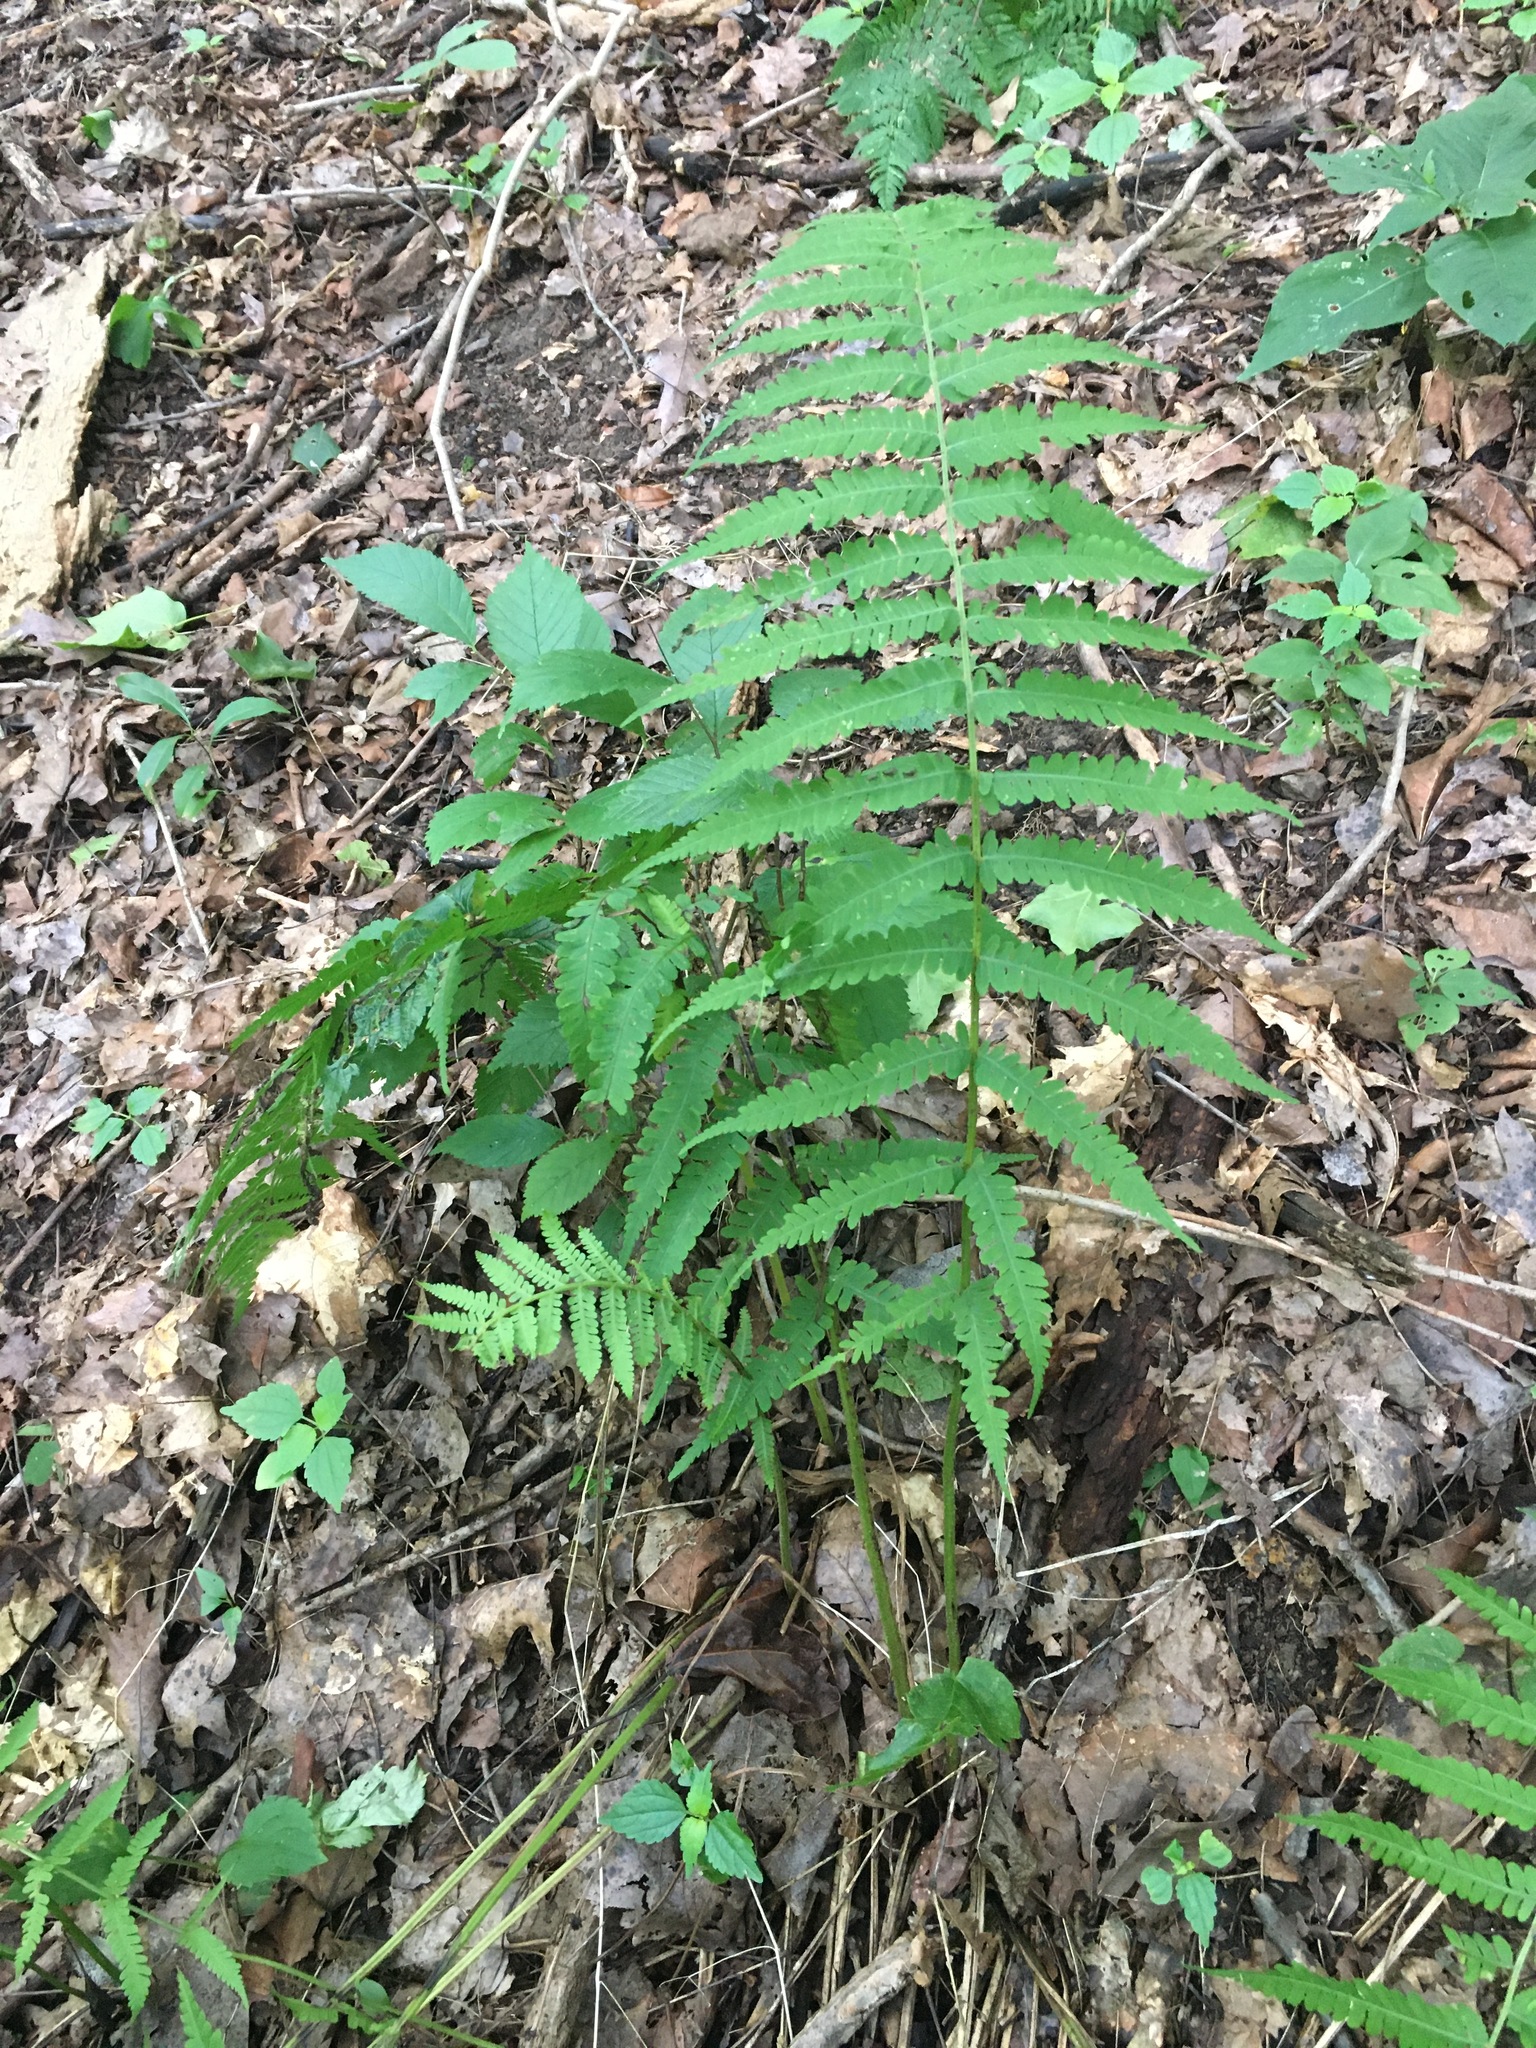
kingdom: Plantae
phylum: Tracheophyta
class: Polypodiopsida
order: Polypodiales
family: Athyriaceae
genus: Deparia
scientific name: Deparia acrostichoides
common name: Silver false spleenwort
